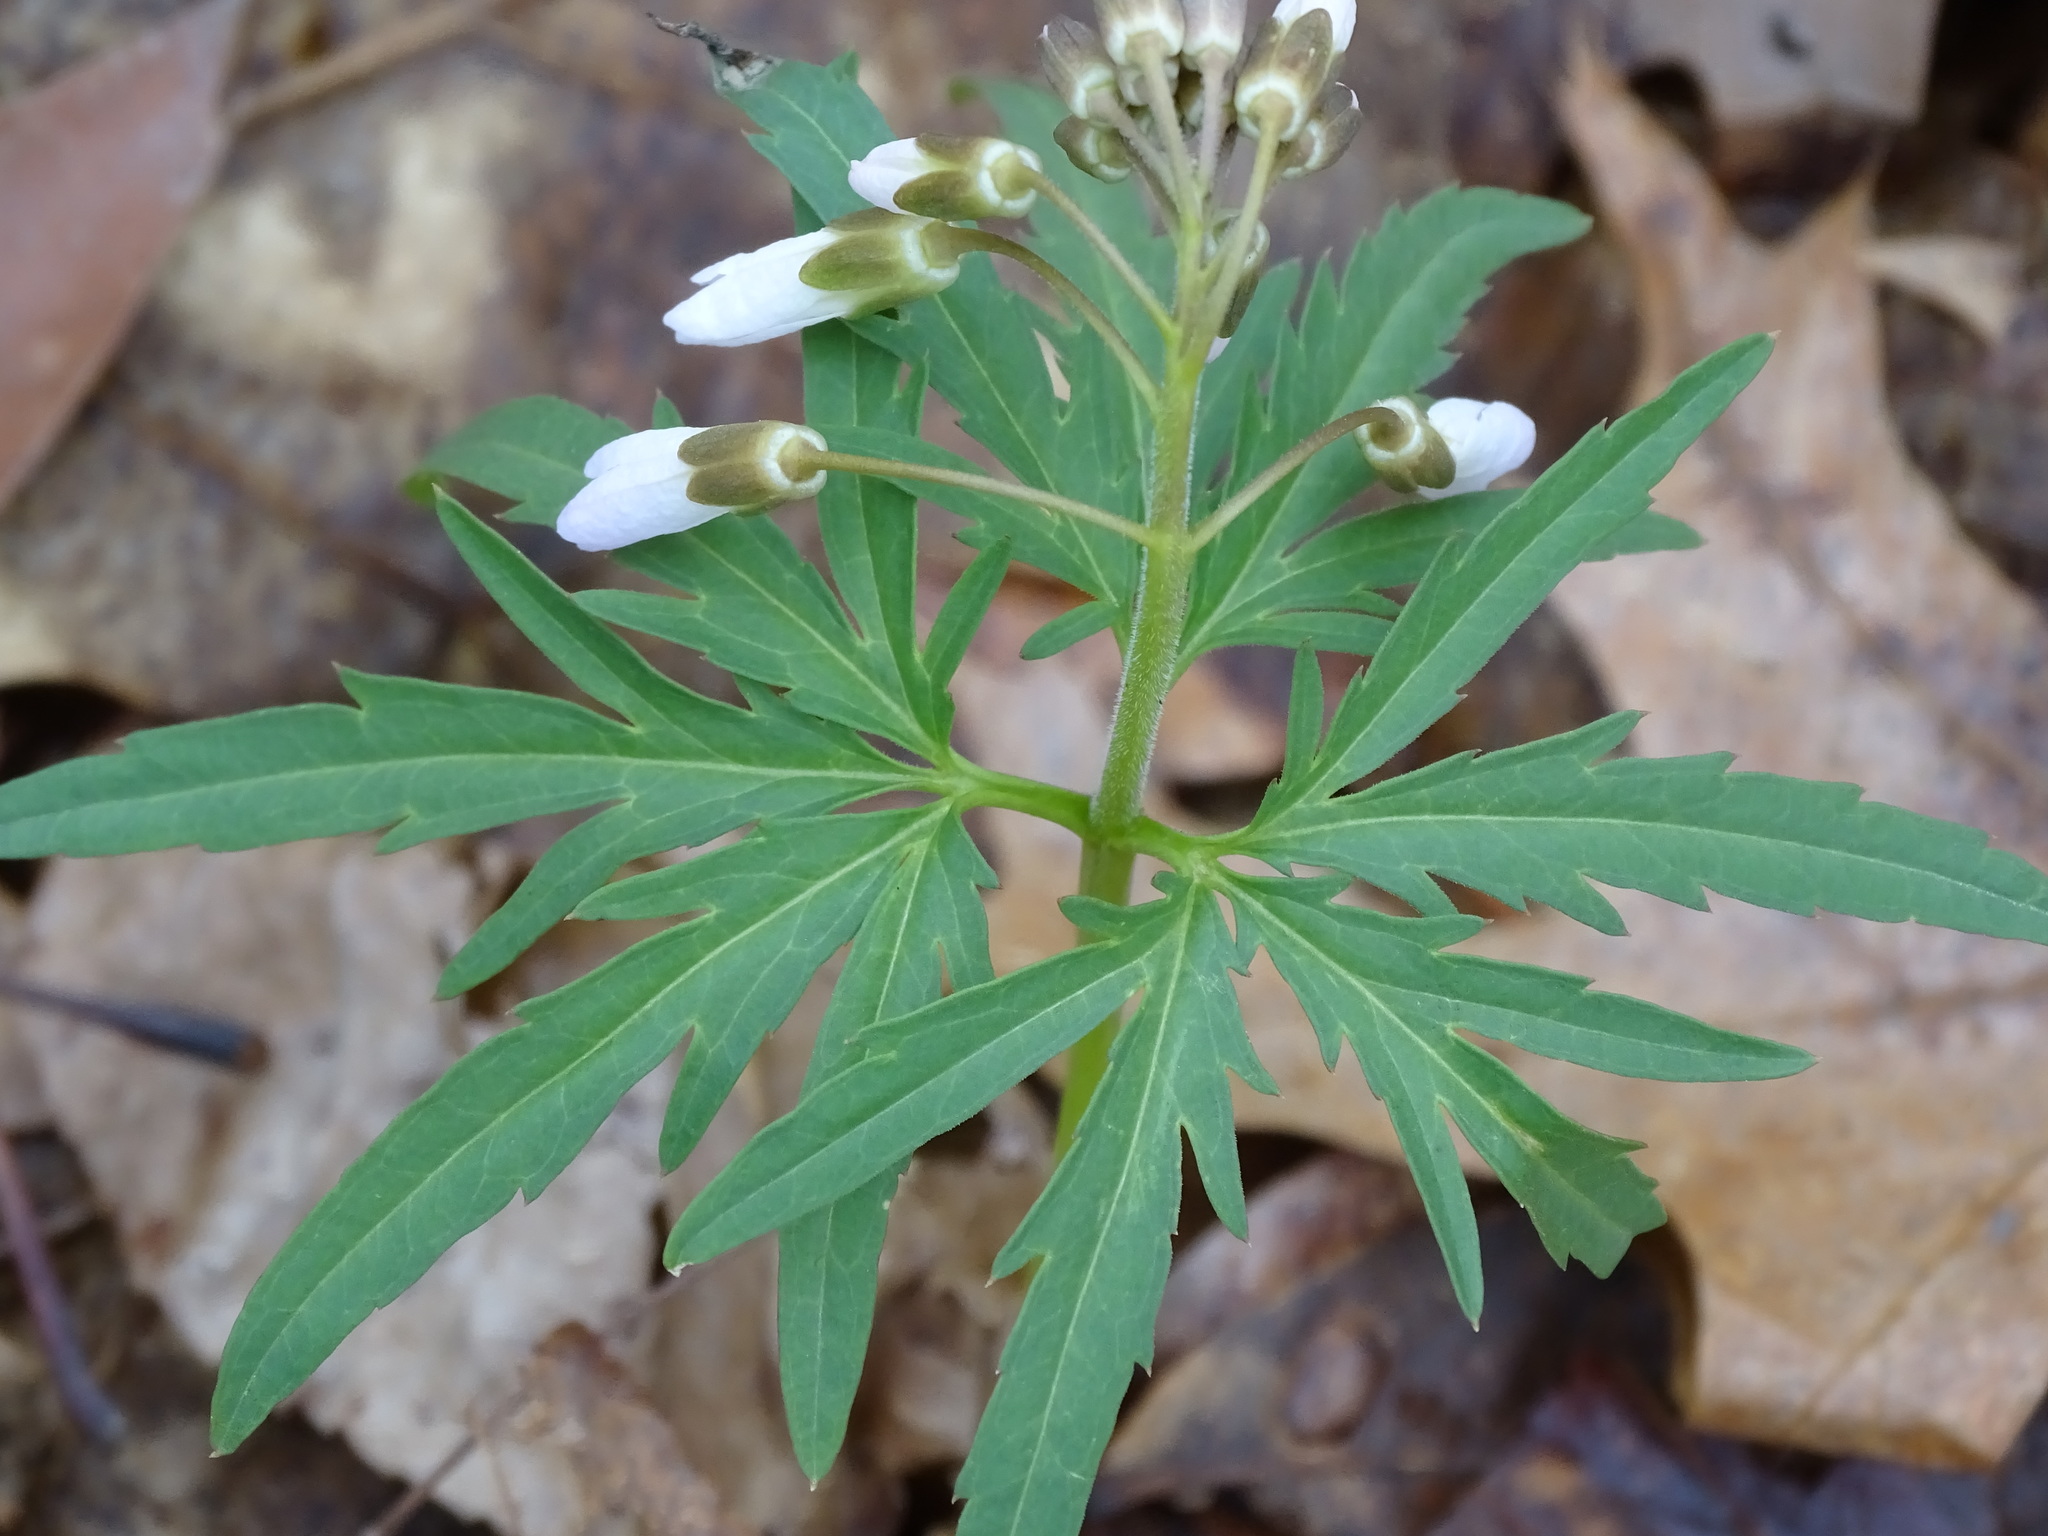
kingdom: Plantae
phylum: Tracheophyta
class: Magnoliopsida
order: Brassicales
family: Brassicaceae
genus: Cardamine
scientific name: Cardamine concatenata
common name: Cut-leaf toothcup
